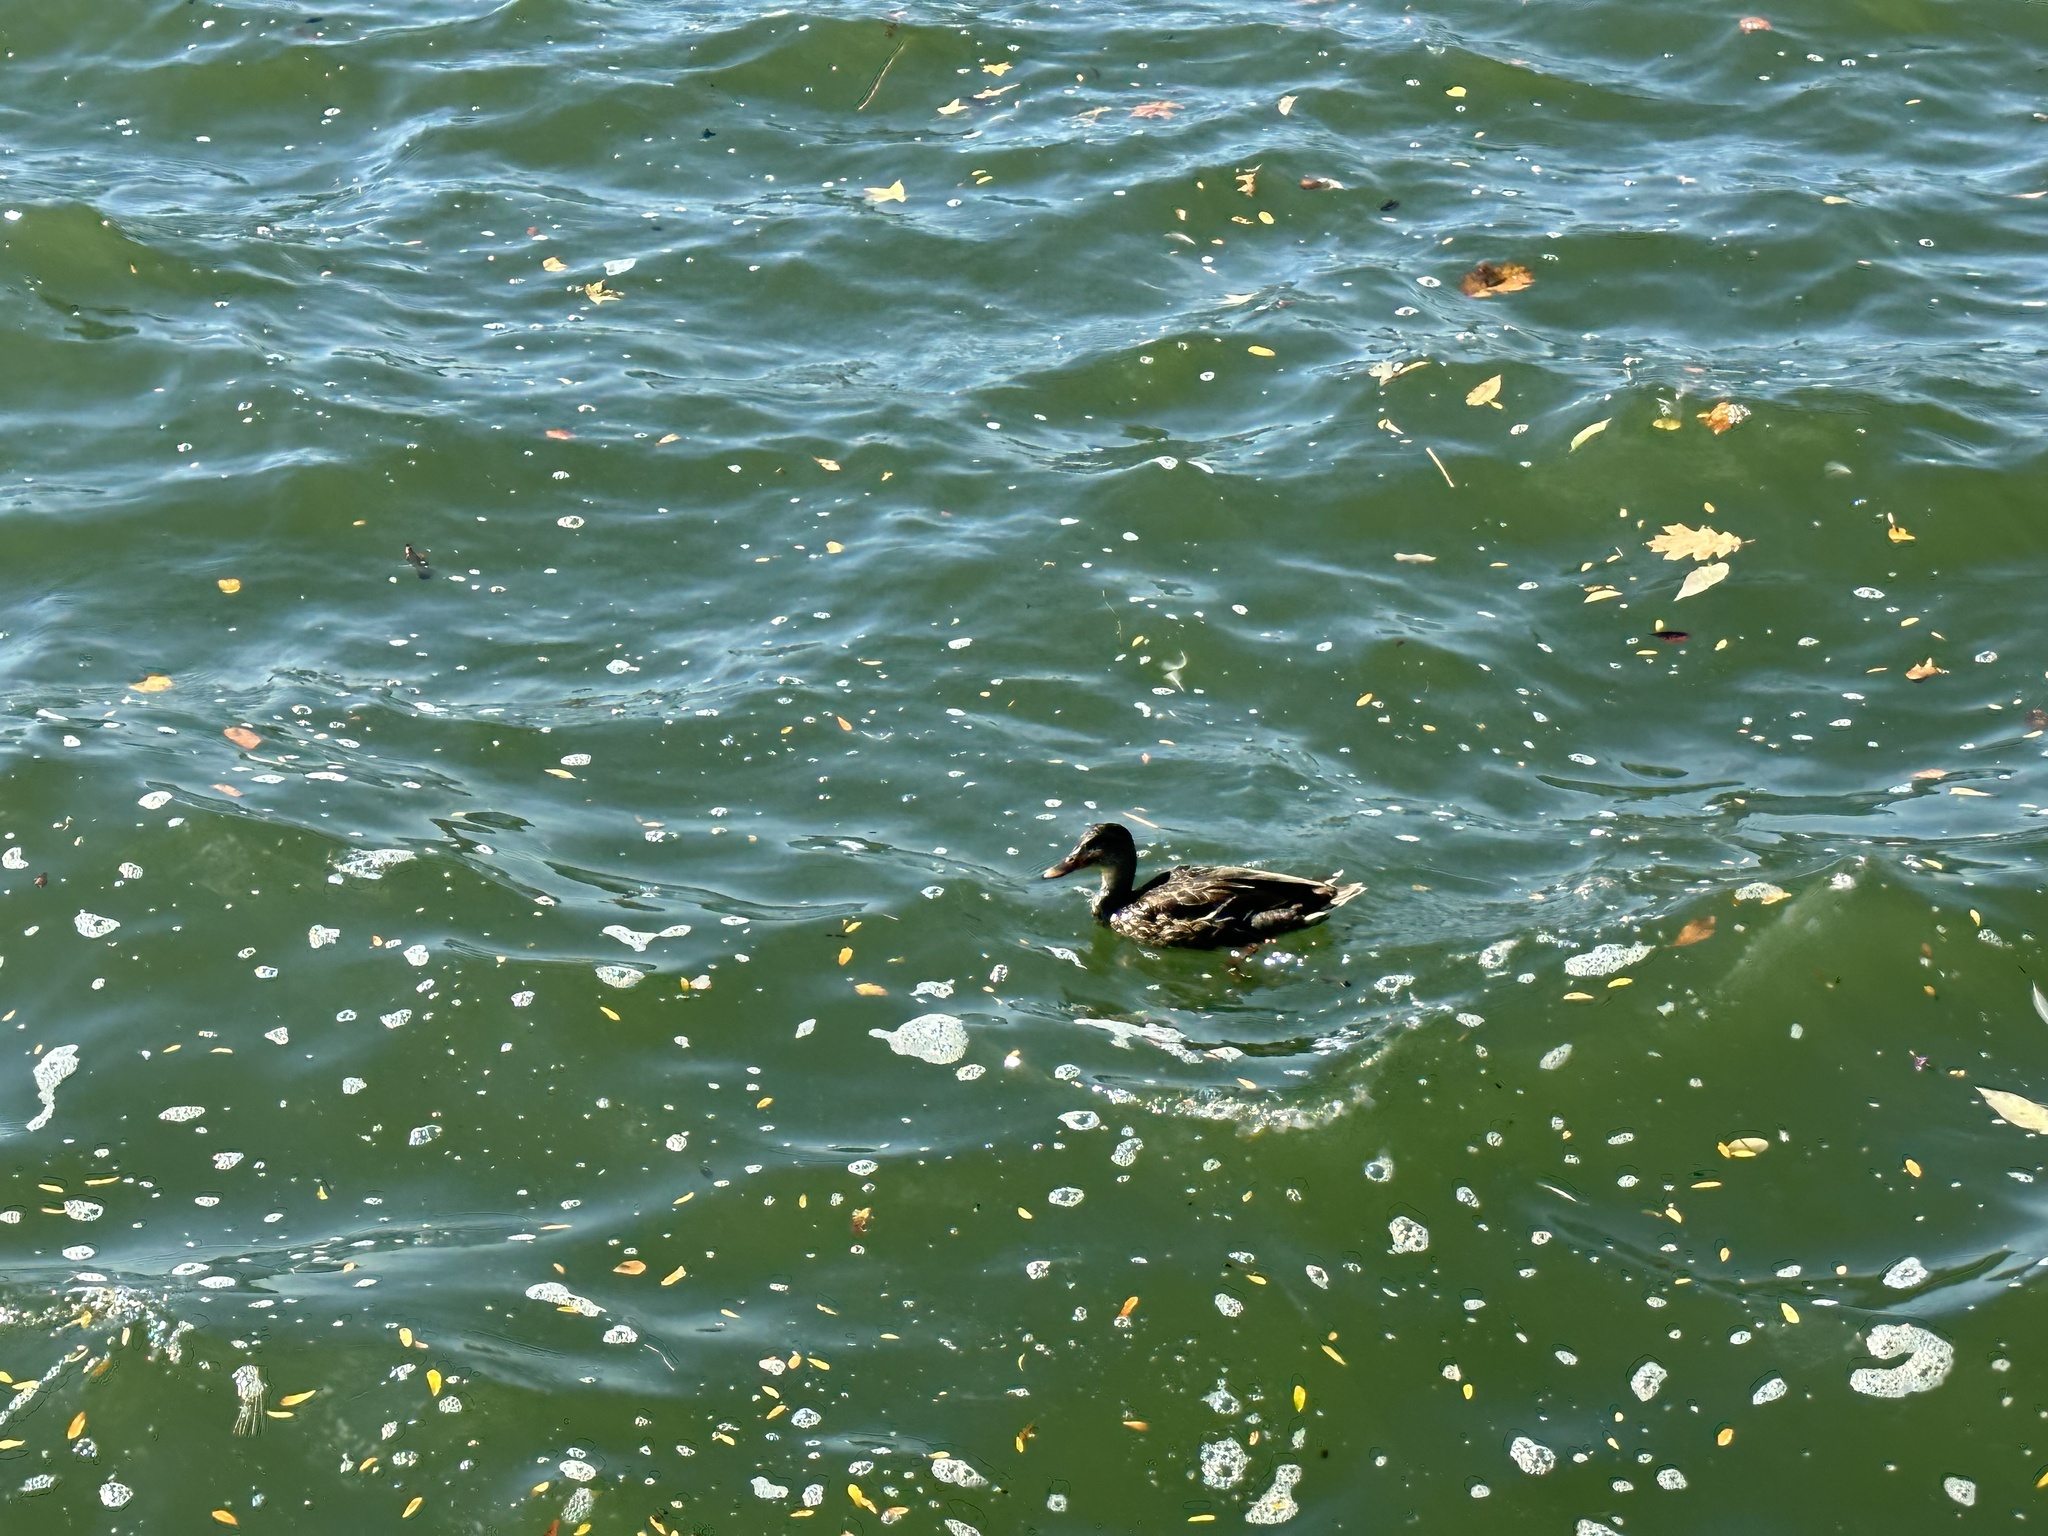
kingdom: Animalia
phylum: Chordata
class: Aves
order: Anseriformes
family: Anatidae
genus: Anas
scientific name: Anas platyrhynchos
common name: Mallard
